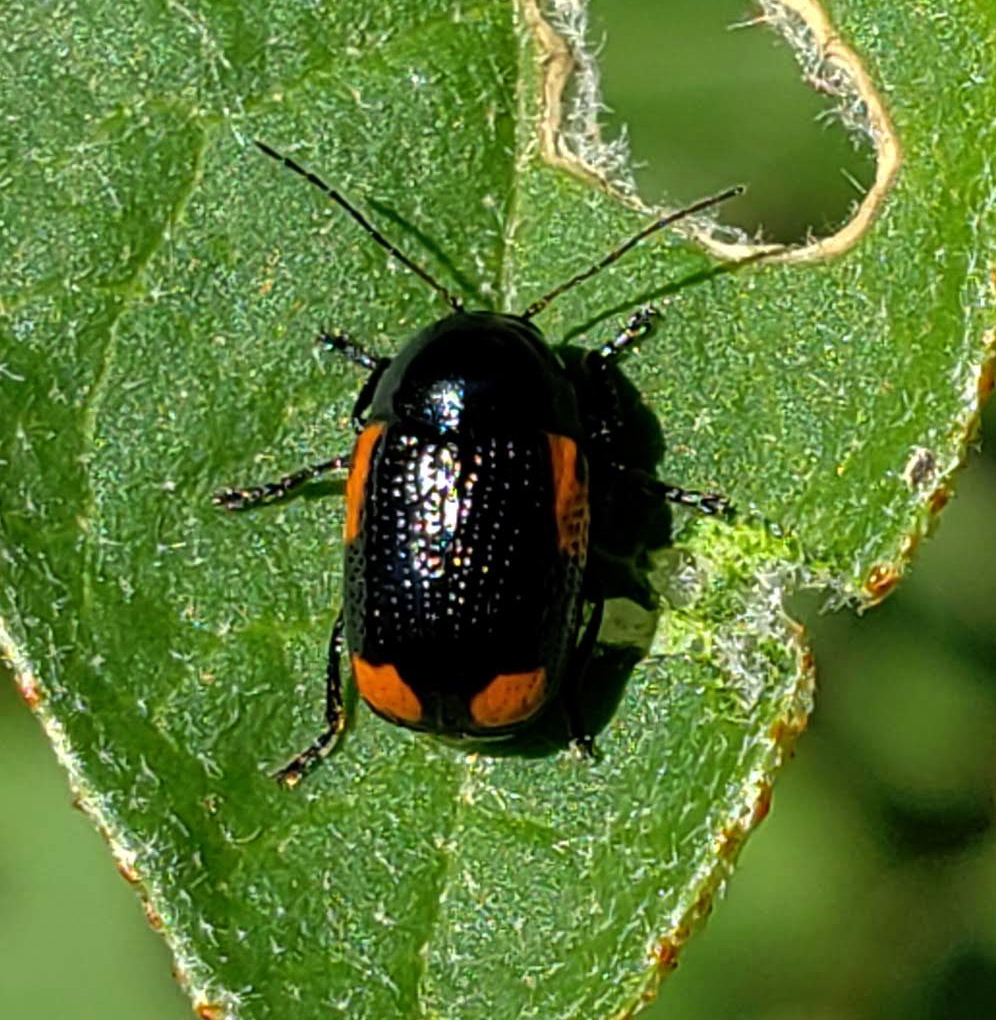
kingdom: Animalia
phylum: Arthropoda
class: Insecta
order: Coleoptera
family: Chrysomelidae
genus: Cryptocephalus
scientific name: Cryptocephalus notatus
